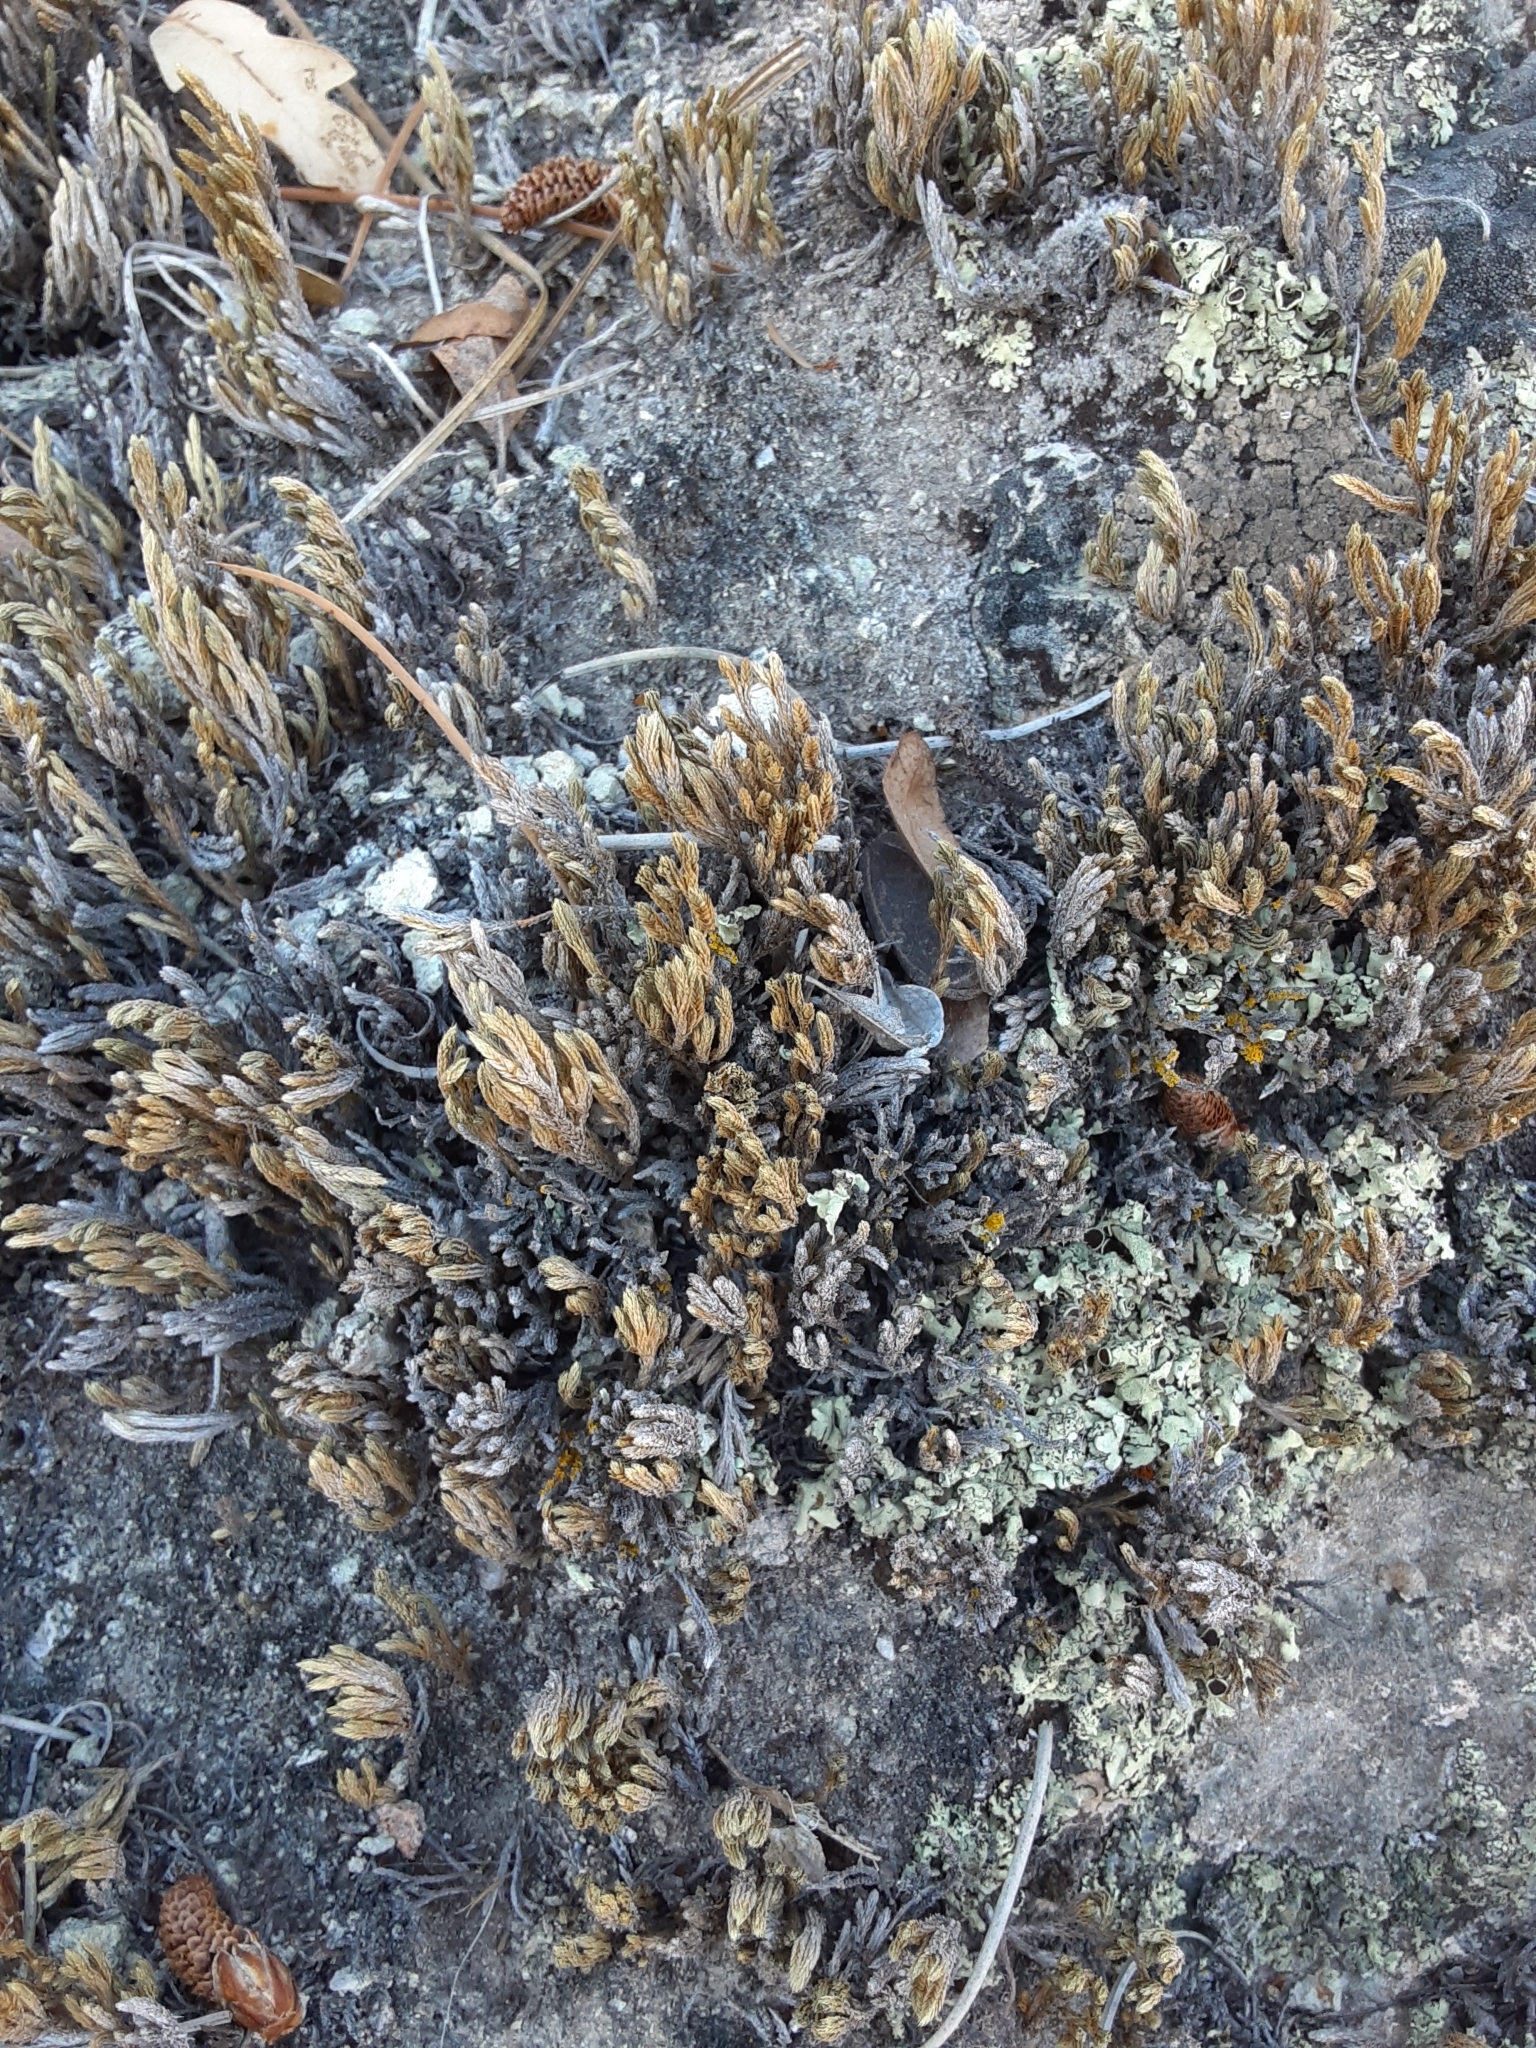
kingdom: Plantae
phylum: Tracheophyta
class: Lycopodiopsida
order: Selaginellales
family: Selaginellaceae
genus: Selaginella
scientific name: Selaginella bigelovii
